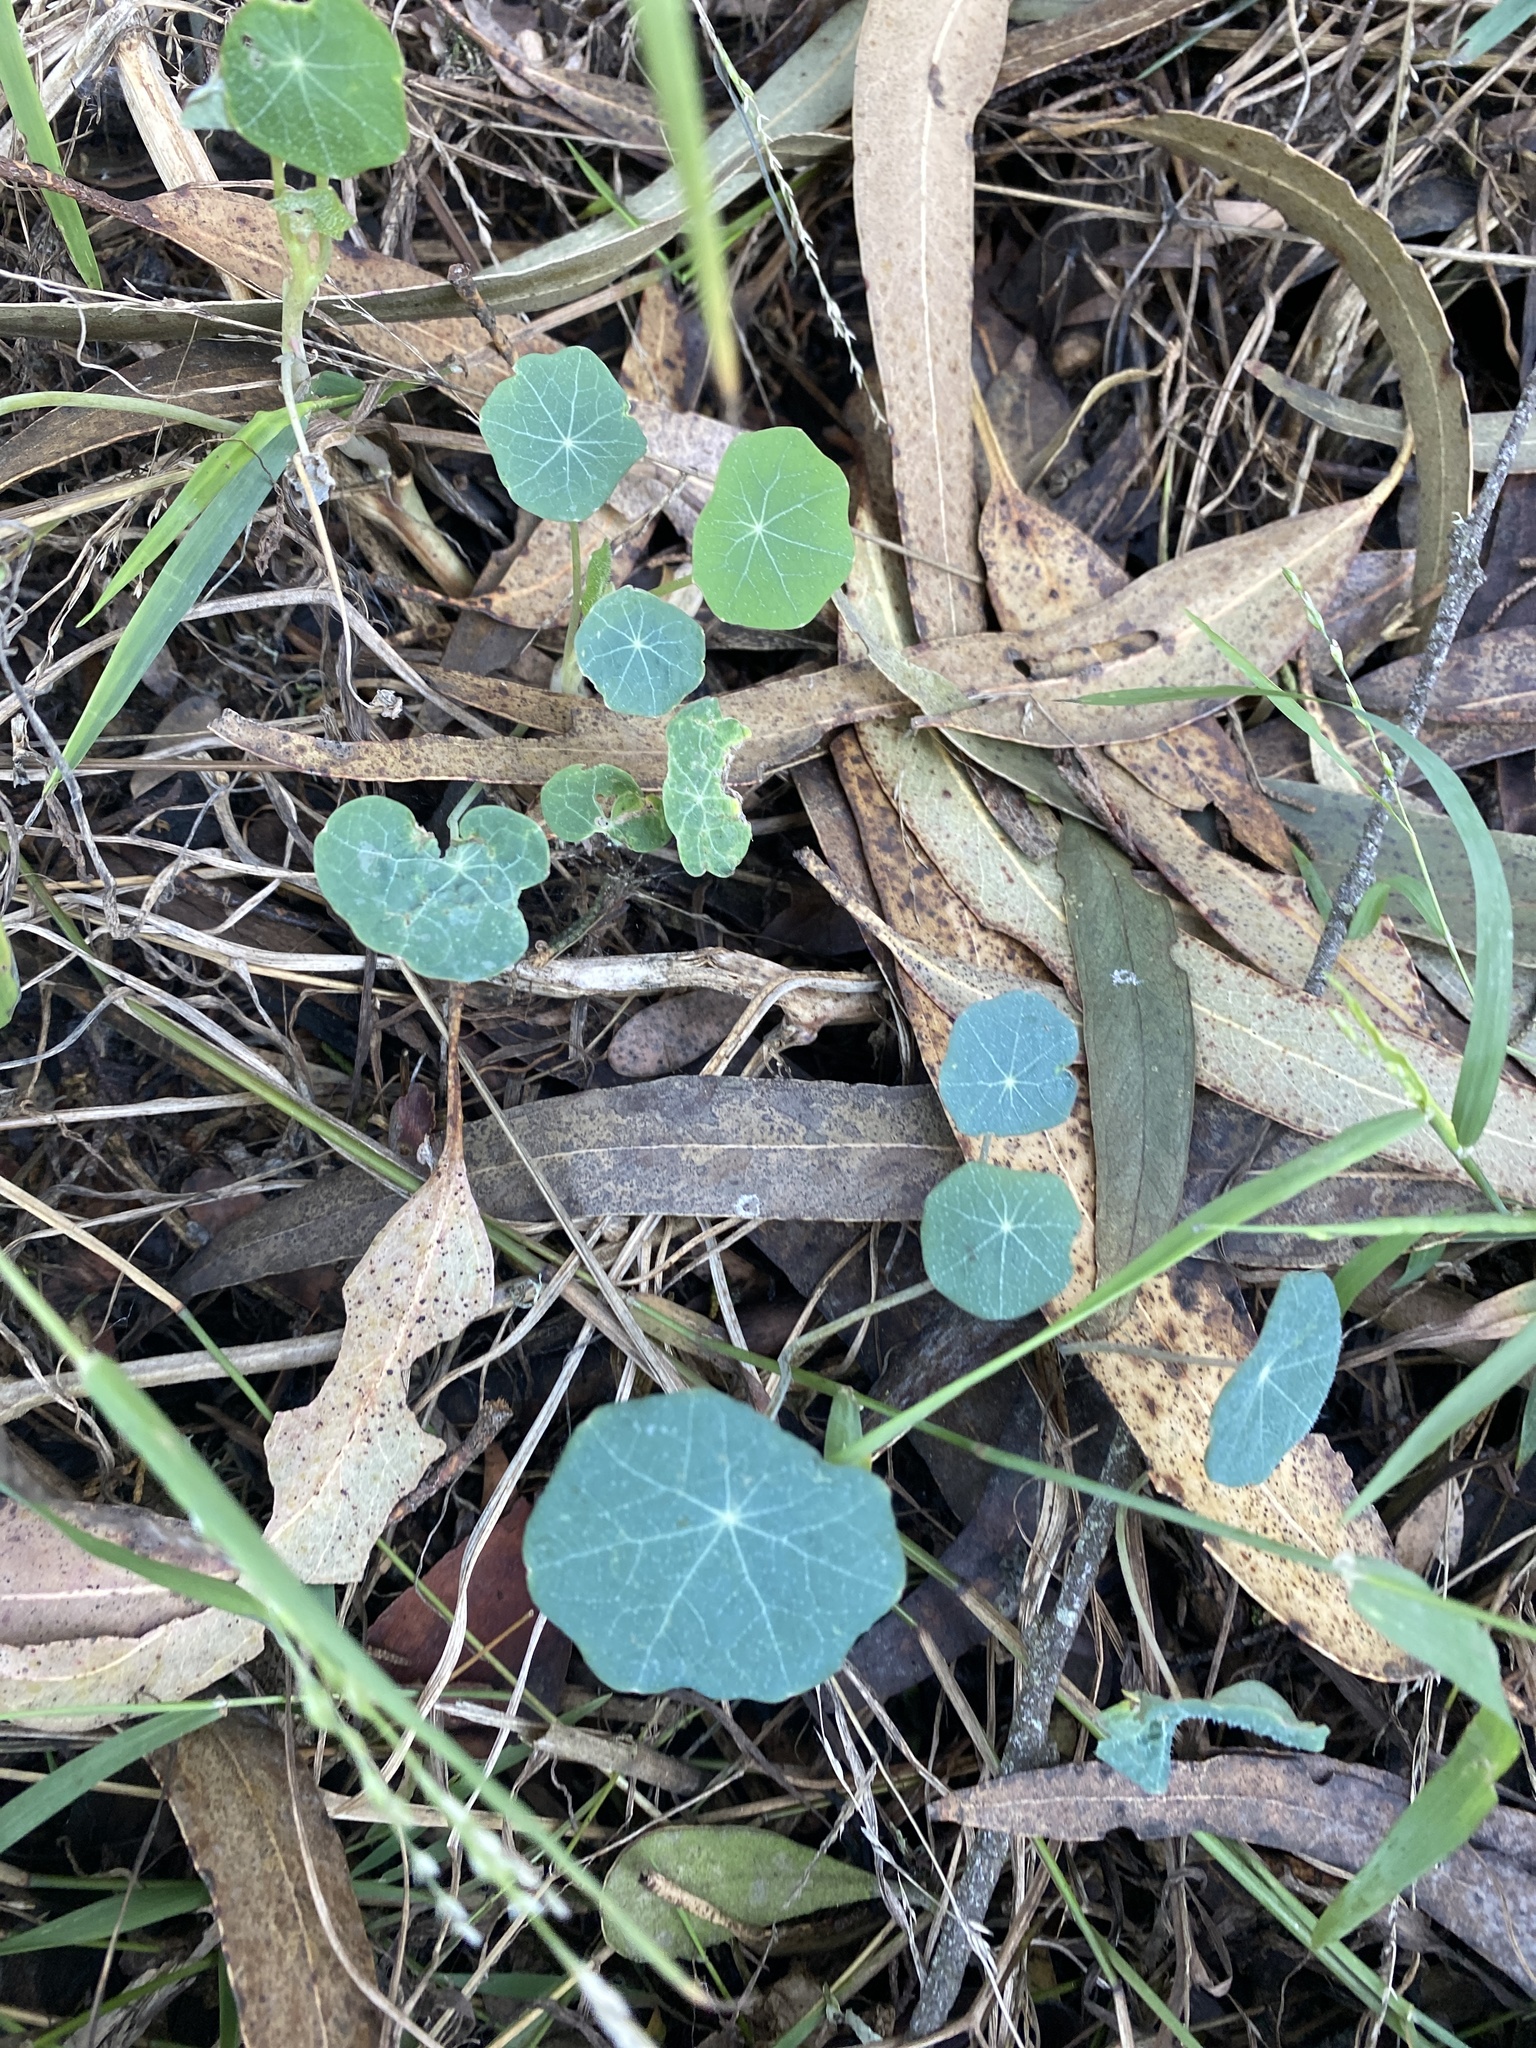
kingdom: Plantae
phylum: Tracheophyta
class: Magnoliopsida
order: Brassicales
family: Tropaeolaceae
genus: Tropaeolum
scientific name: Tropaeolum majus
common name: Nasturtium
